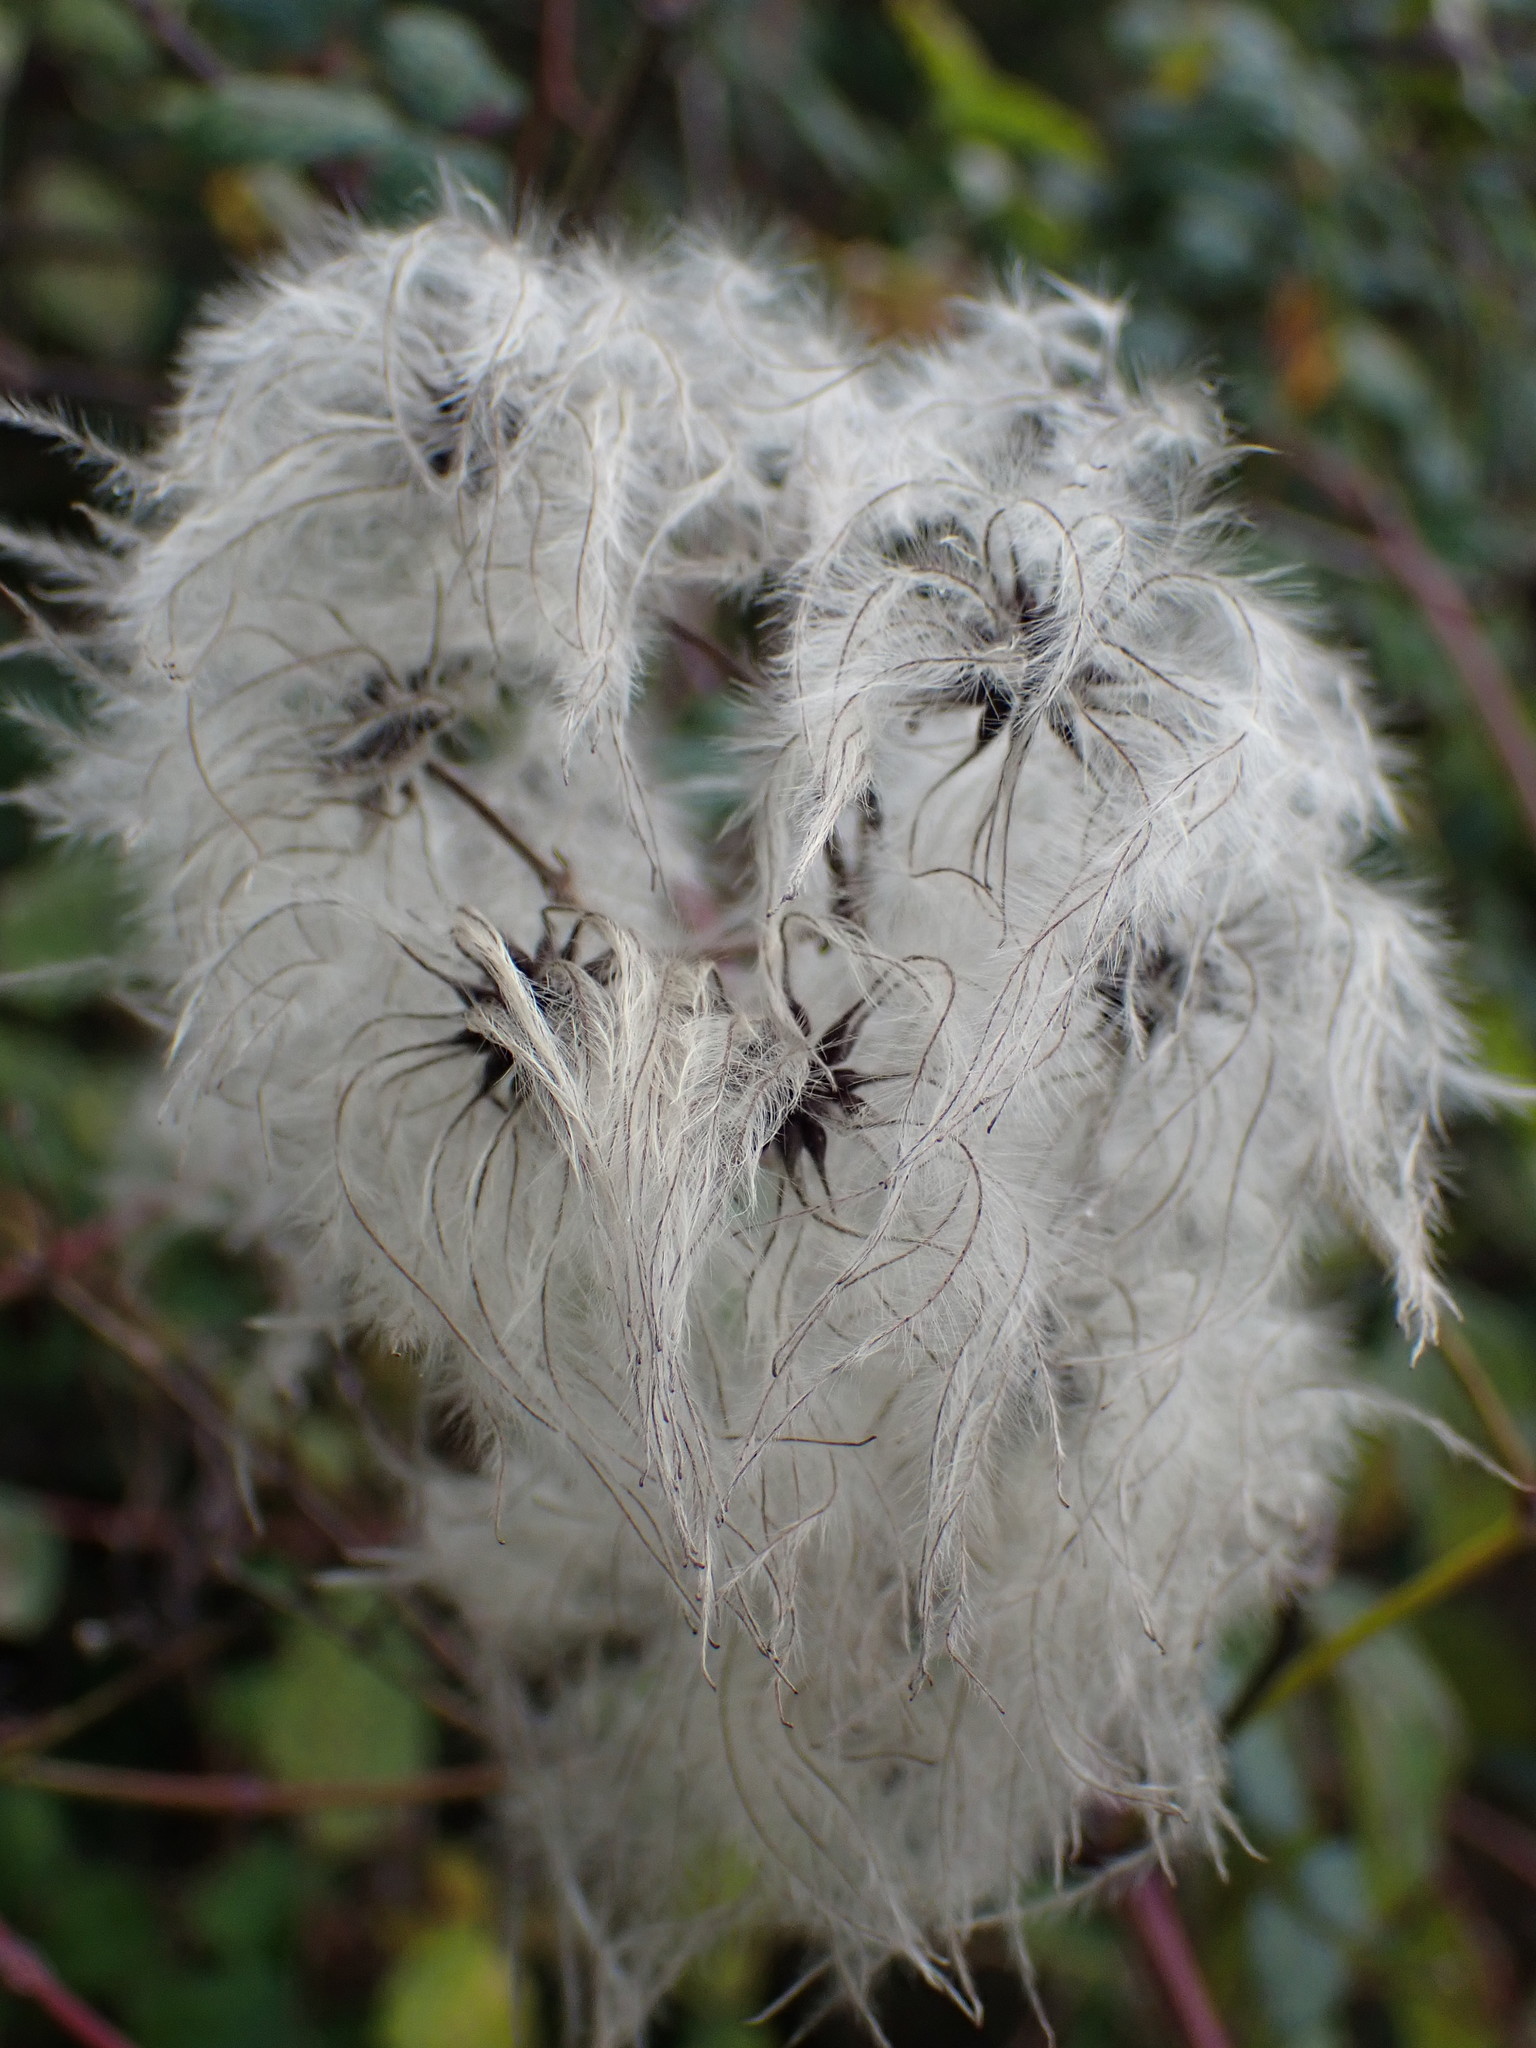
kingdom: Plantae
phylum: Tracheophyta
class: Magnoliopsida
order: Ranunculales
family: Ranunculaceae
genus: Clematis
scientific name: Clematis vitalba
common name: Evergreen clematis
